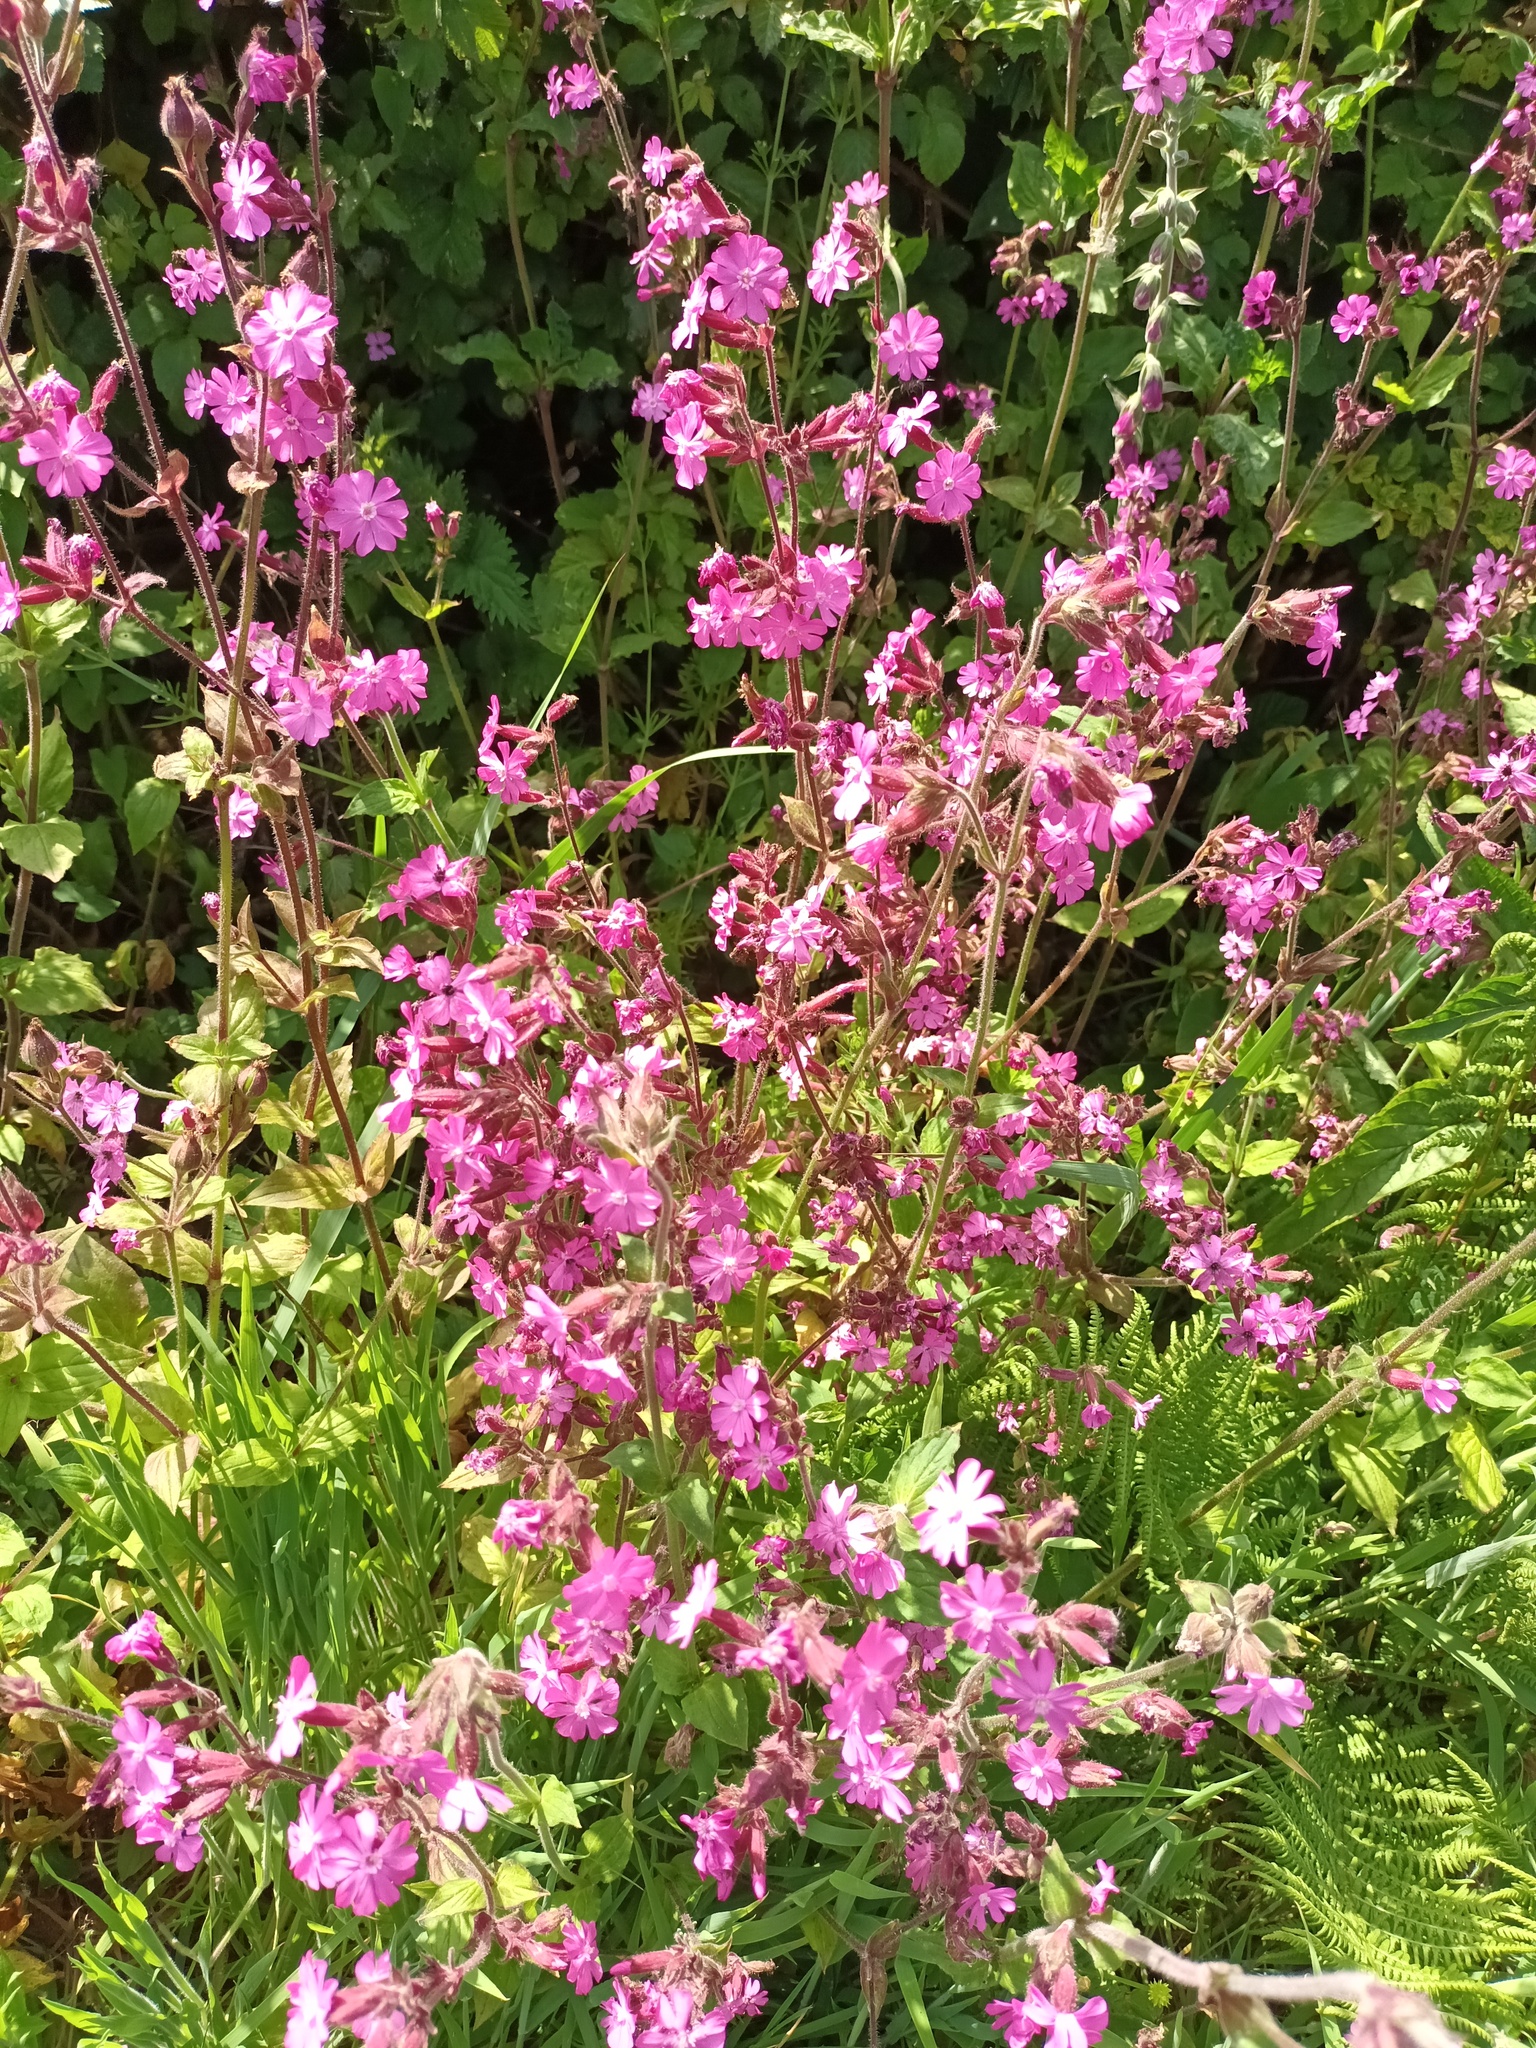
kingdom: Plantae
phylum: Tracheophyta
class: Magnoliopsida
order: Caryophyllales
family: Caryophyllaceae
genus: Silene
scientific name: Silene dioica
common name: Red campion
